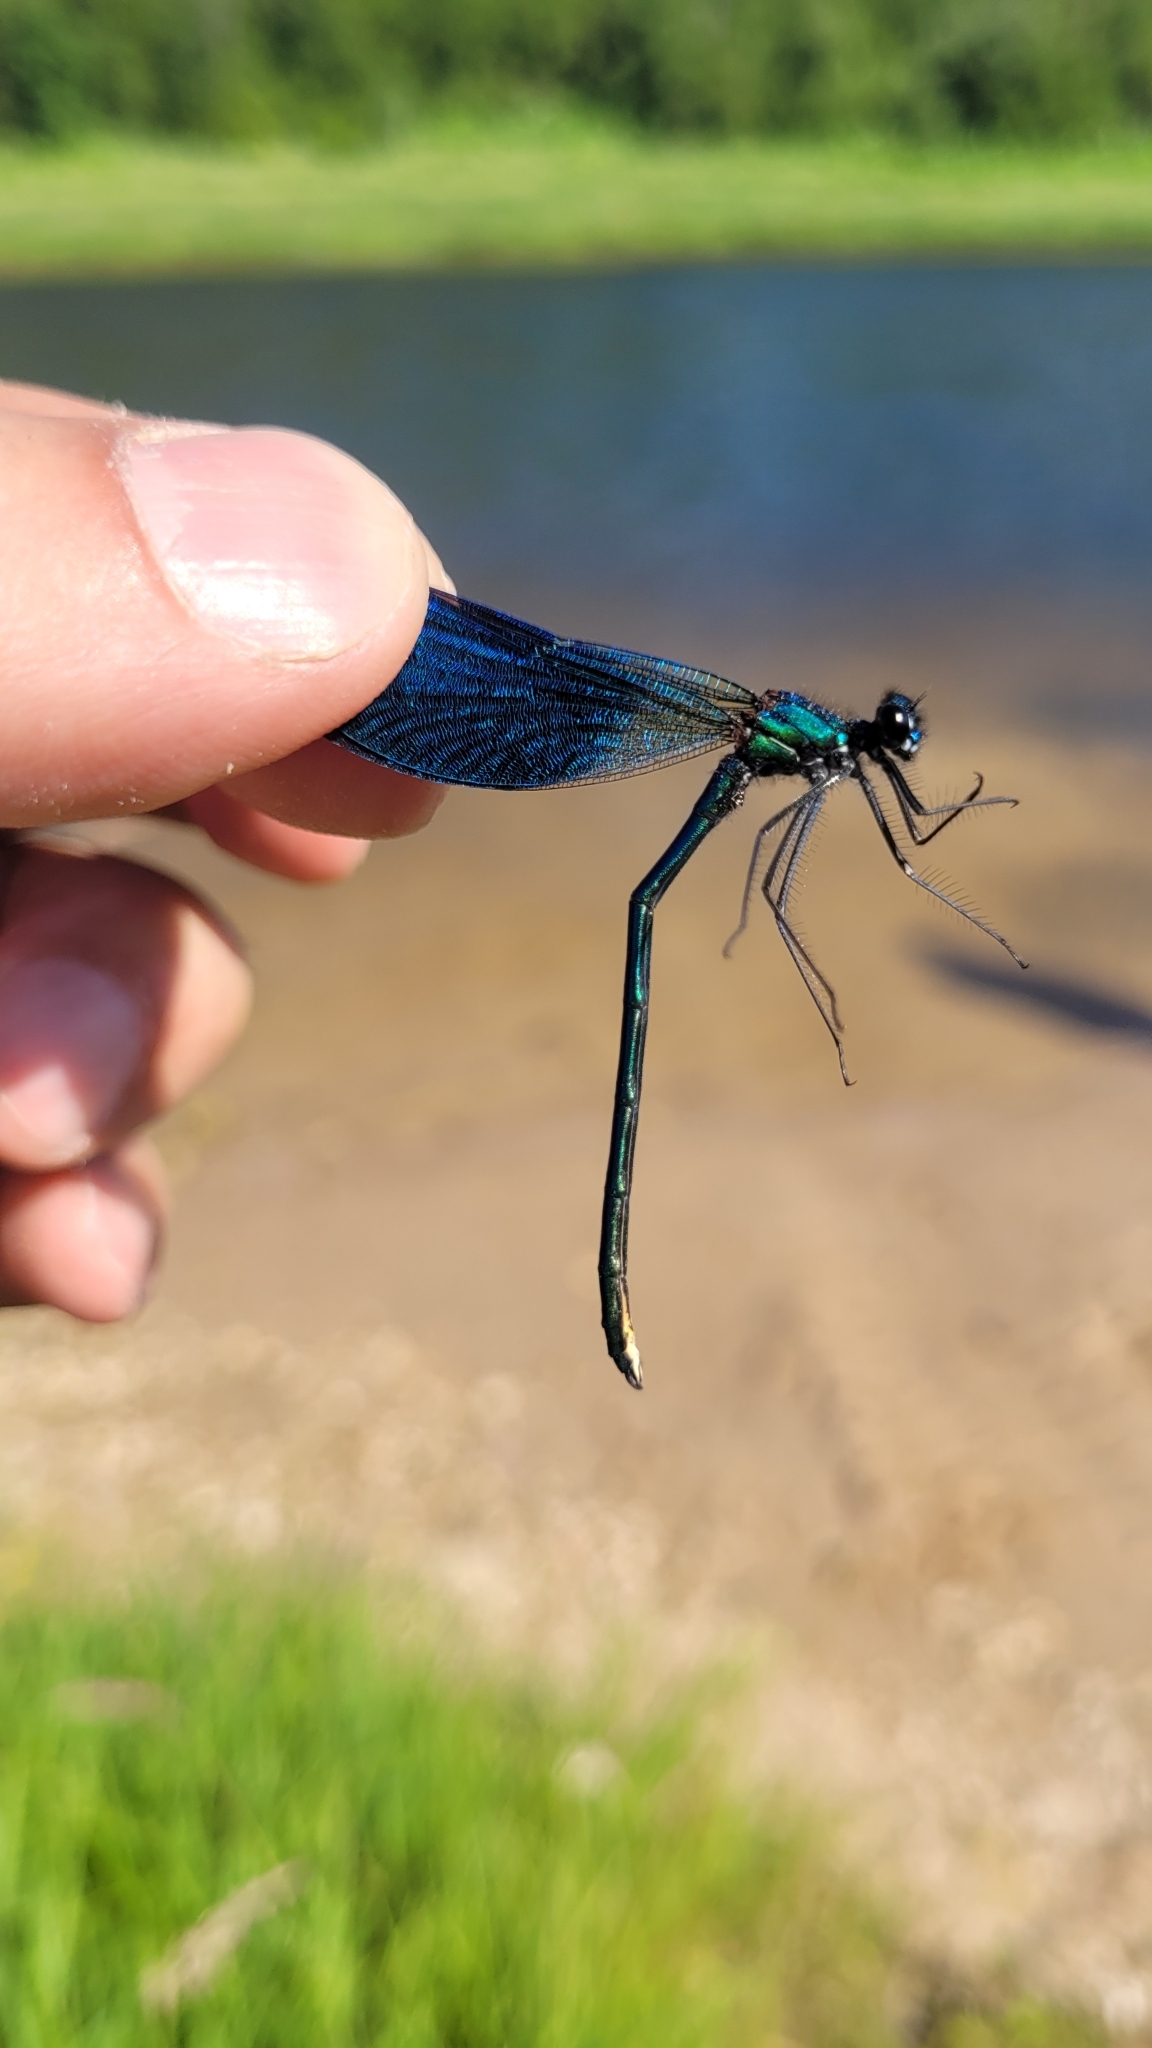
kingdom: Animalia
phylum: Arthropoda
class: Insecta
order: Odonata
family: Calopterygidae
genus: Calopteryx
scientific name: Calopteryx splendens
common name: Banded demoiselle
